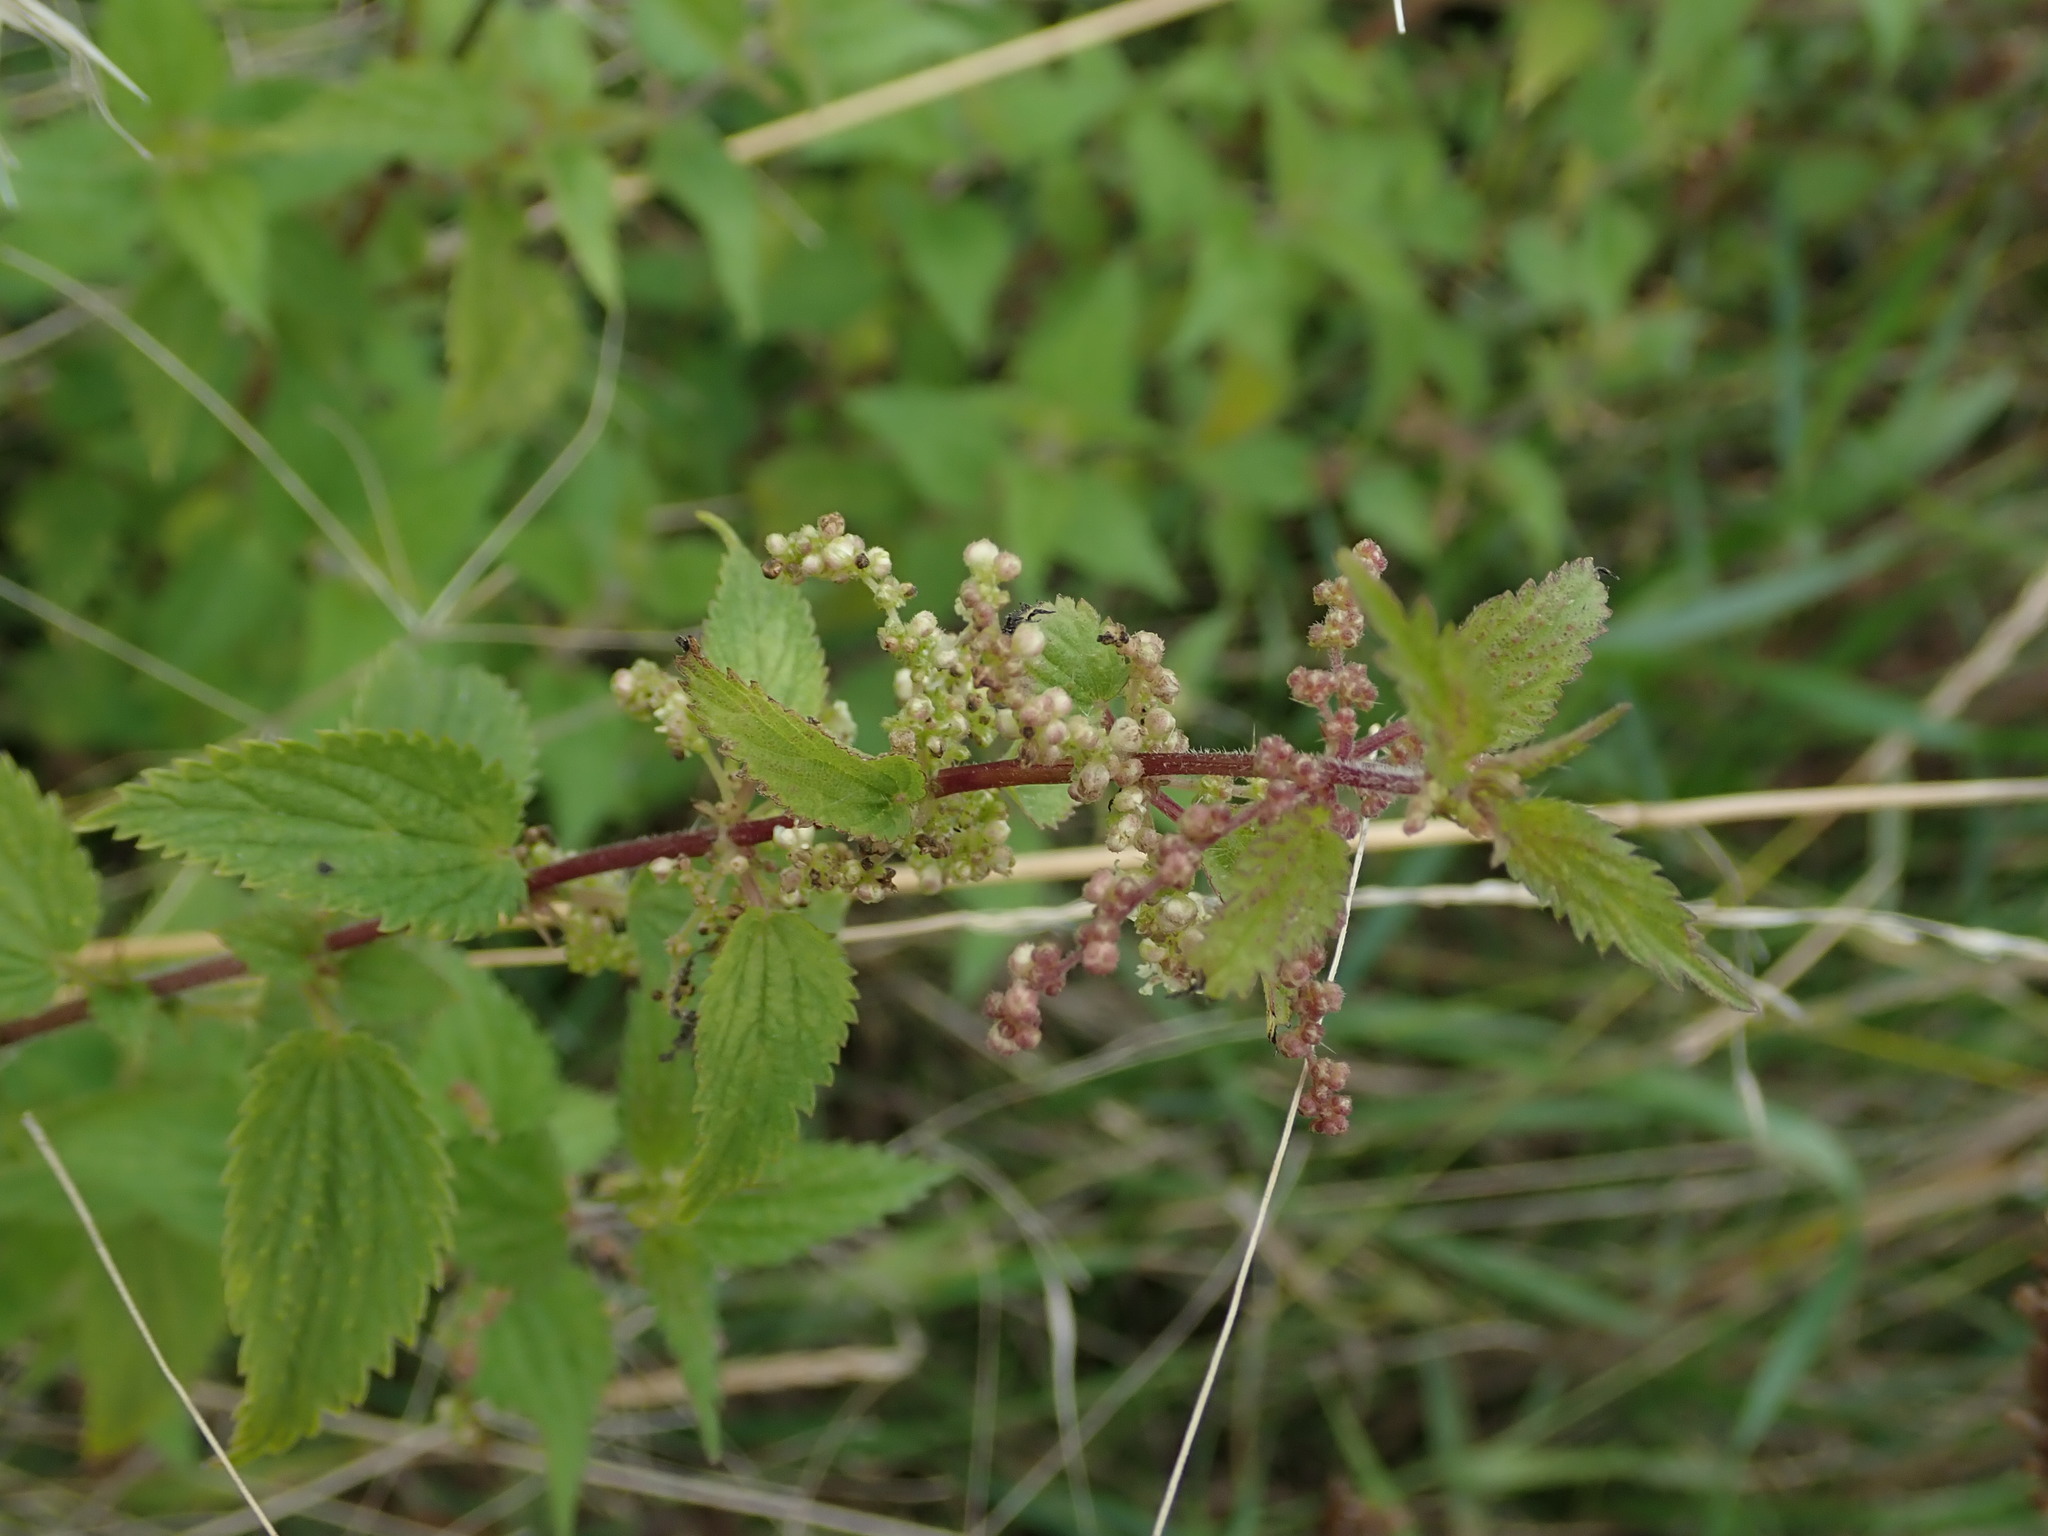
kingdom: Plantae
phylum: Tracheophyta
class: Magnoliopsida
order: Rosales
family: Urticaceae
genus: Urtica
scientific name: Urtica dioica
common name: Common nettle
